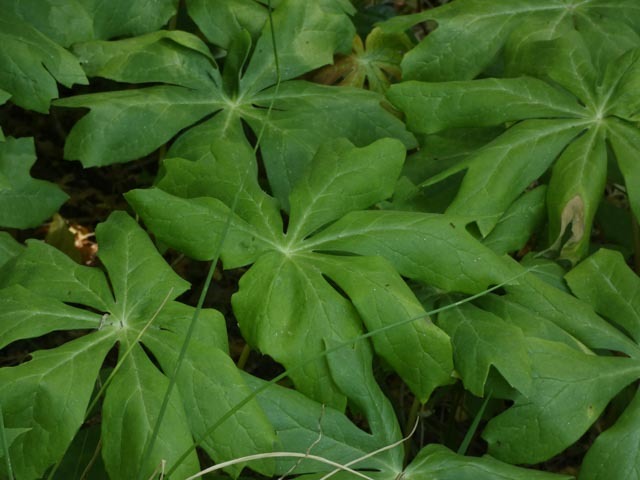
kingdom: Plantae
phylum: Tracheophyta
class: Magnoliopsida
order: Ranunculales
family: Berberidaceae
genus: Podophyllum
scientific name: Podophyllum peltatum
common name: Wild mandrake
